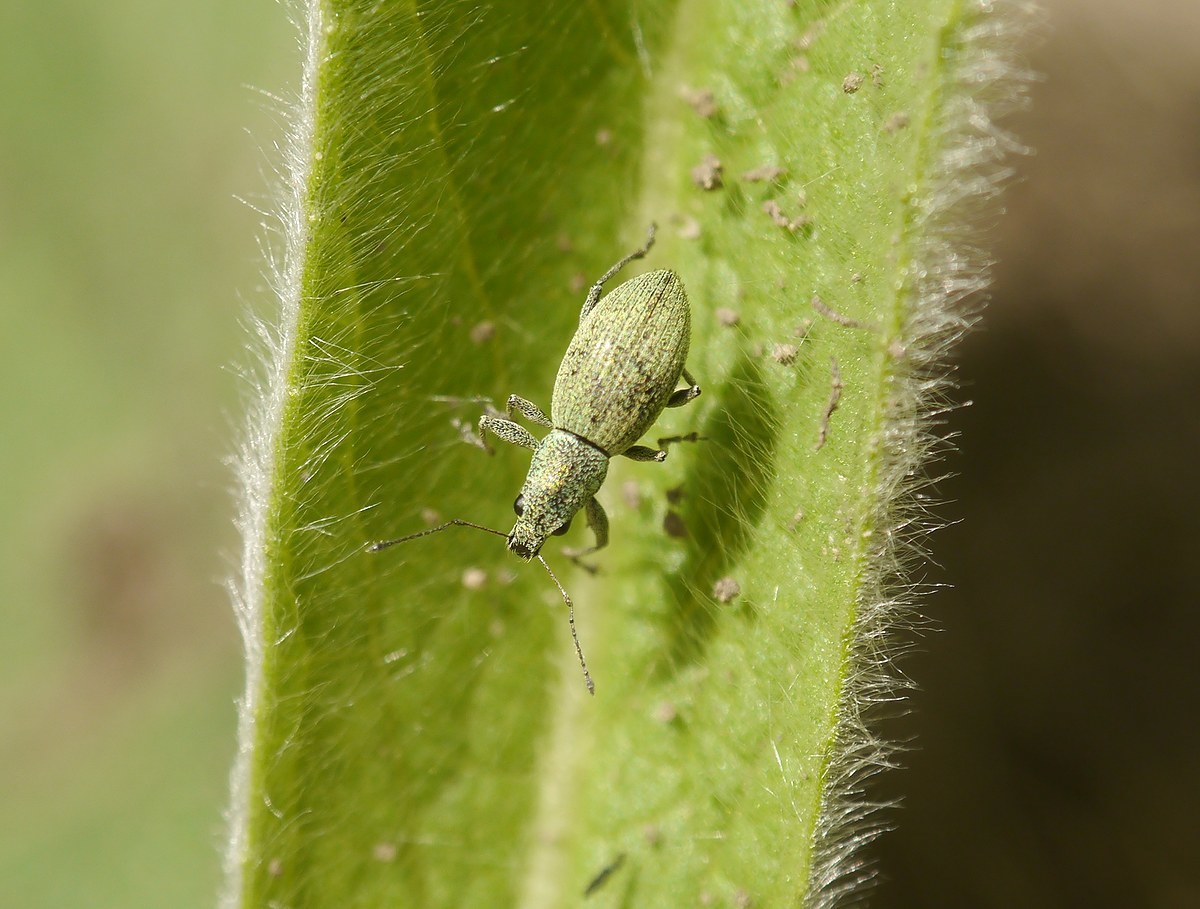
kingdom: Animalia
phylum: Arthropoda
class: Insecta
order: Coleoptera
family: Curculionidae
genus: Eusomus
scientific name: Eusomus ovulum
